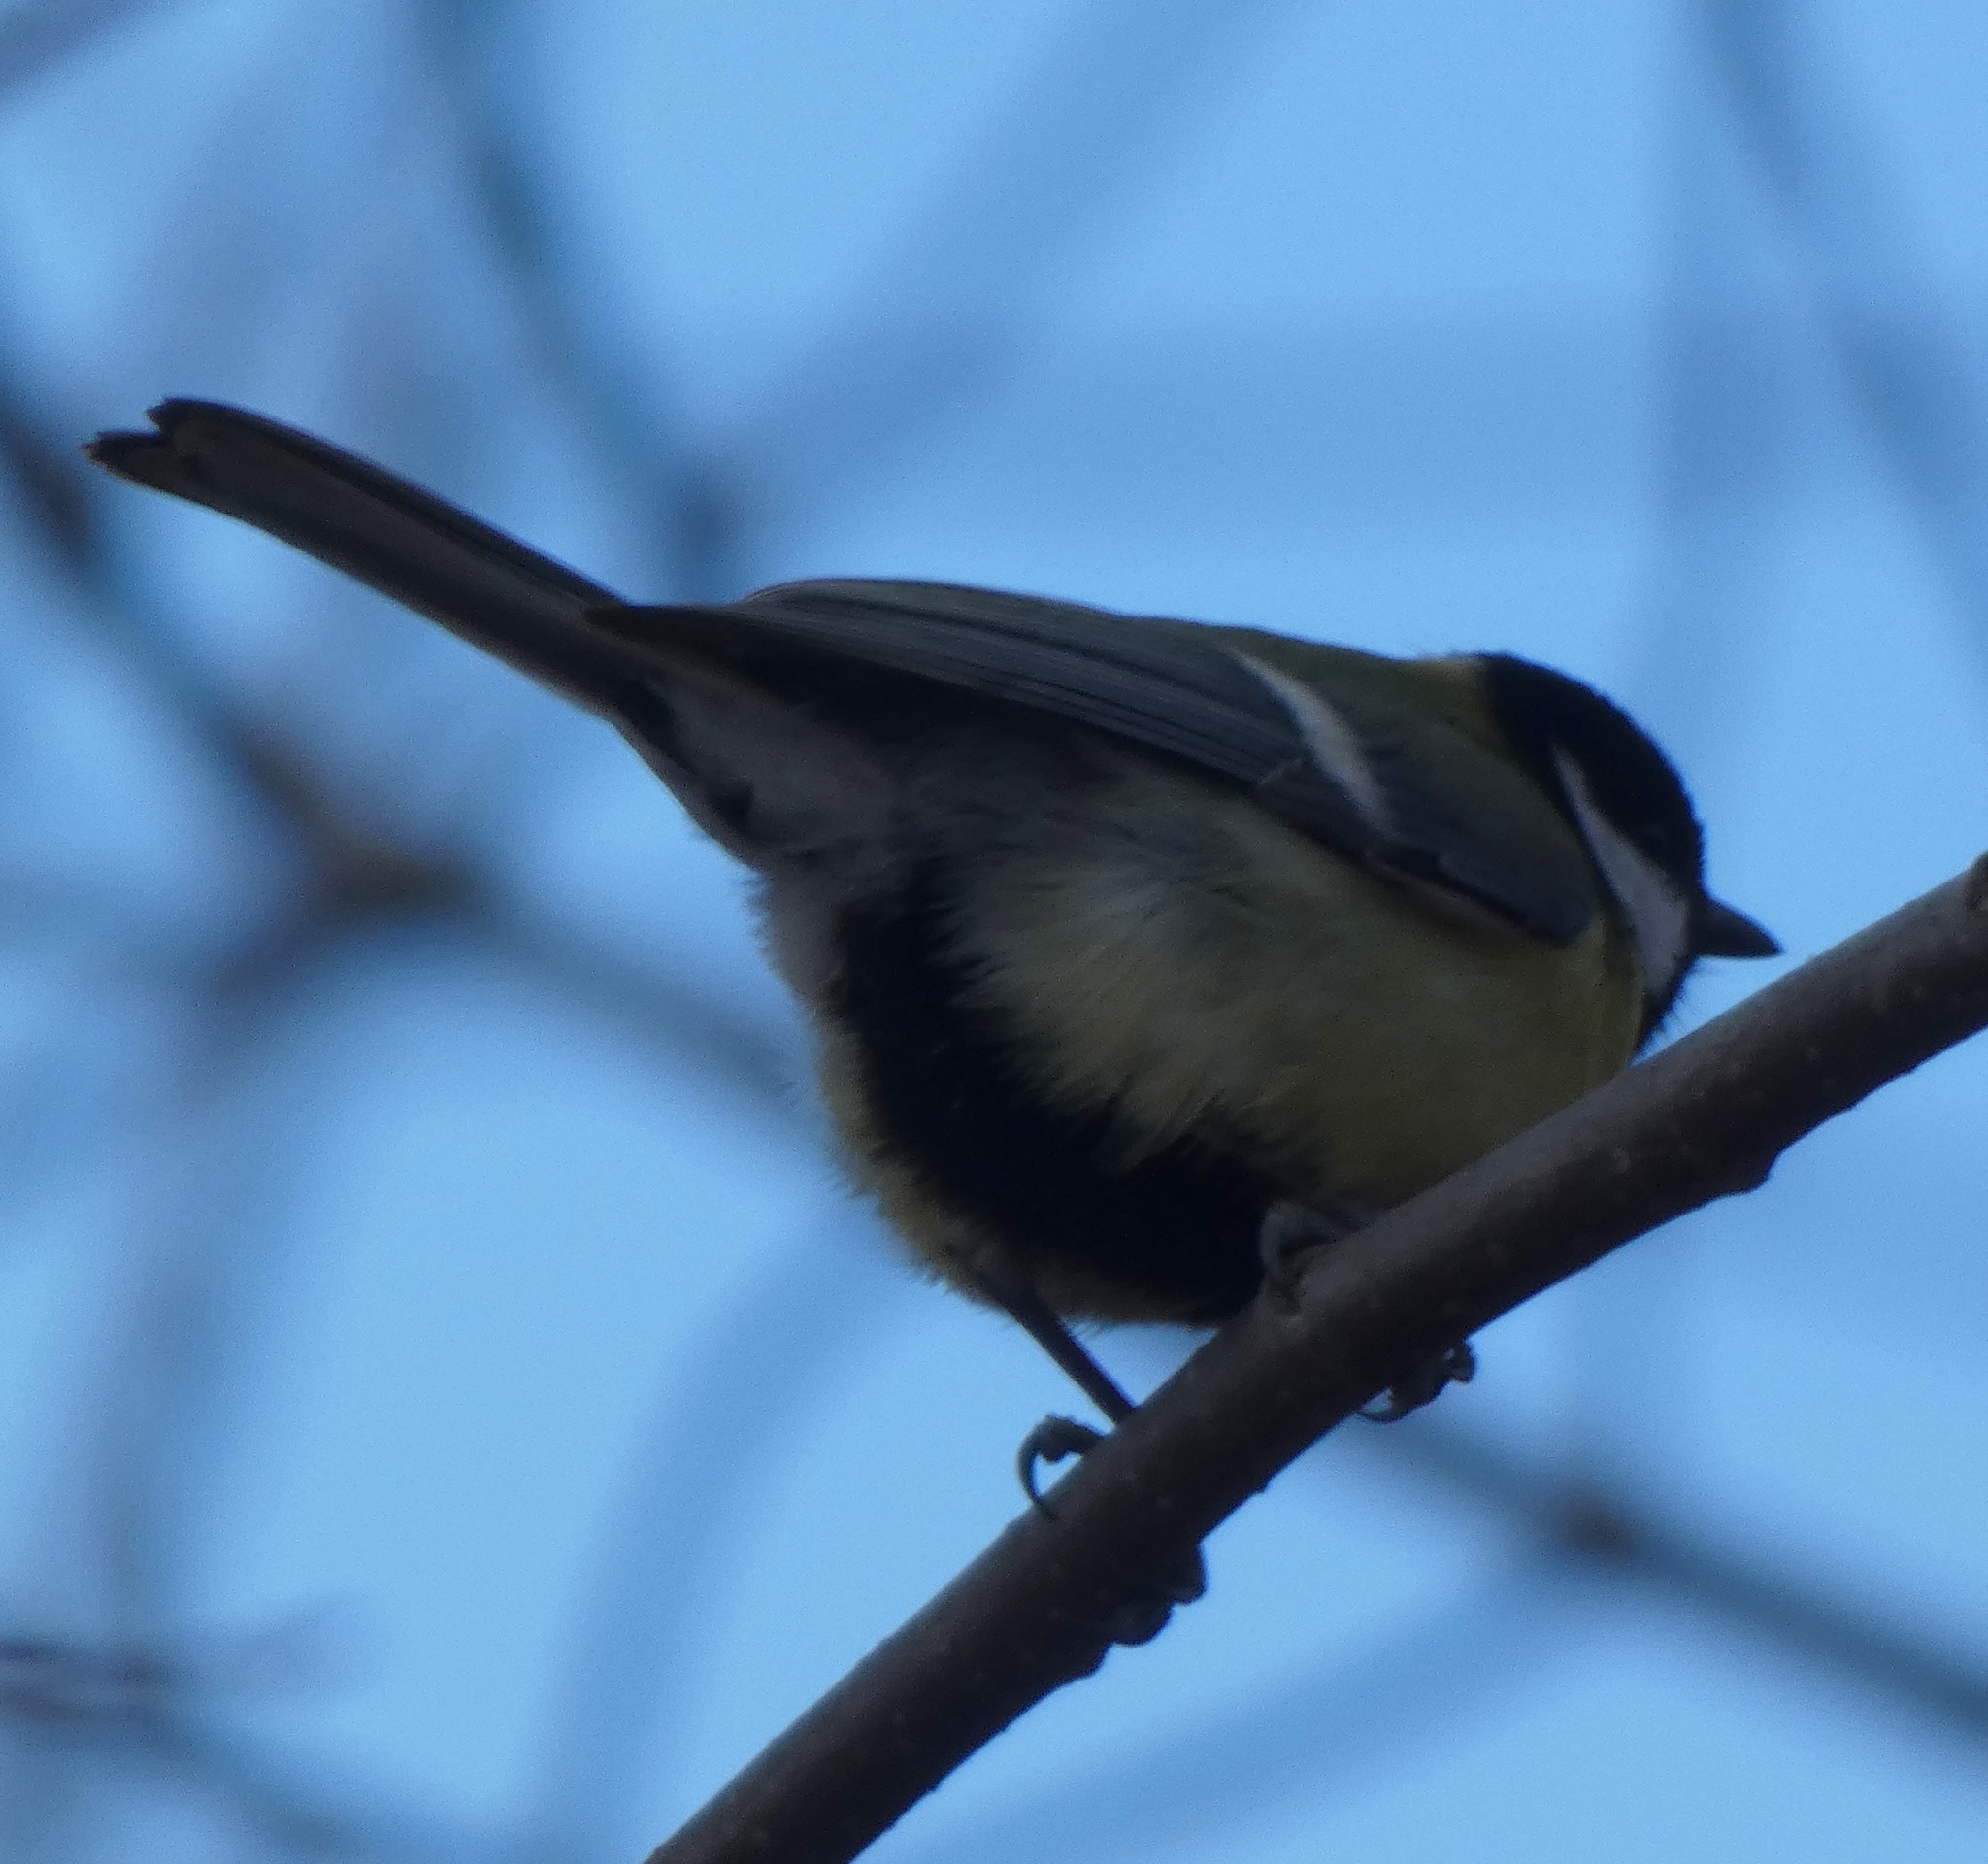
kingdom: Animalia
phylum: Chordata
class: Aves
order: Passeriformes
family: Paridae
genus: Parus
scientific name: Parus major
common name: Great tit
